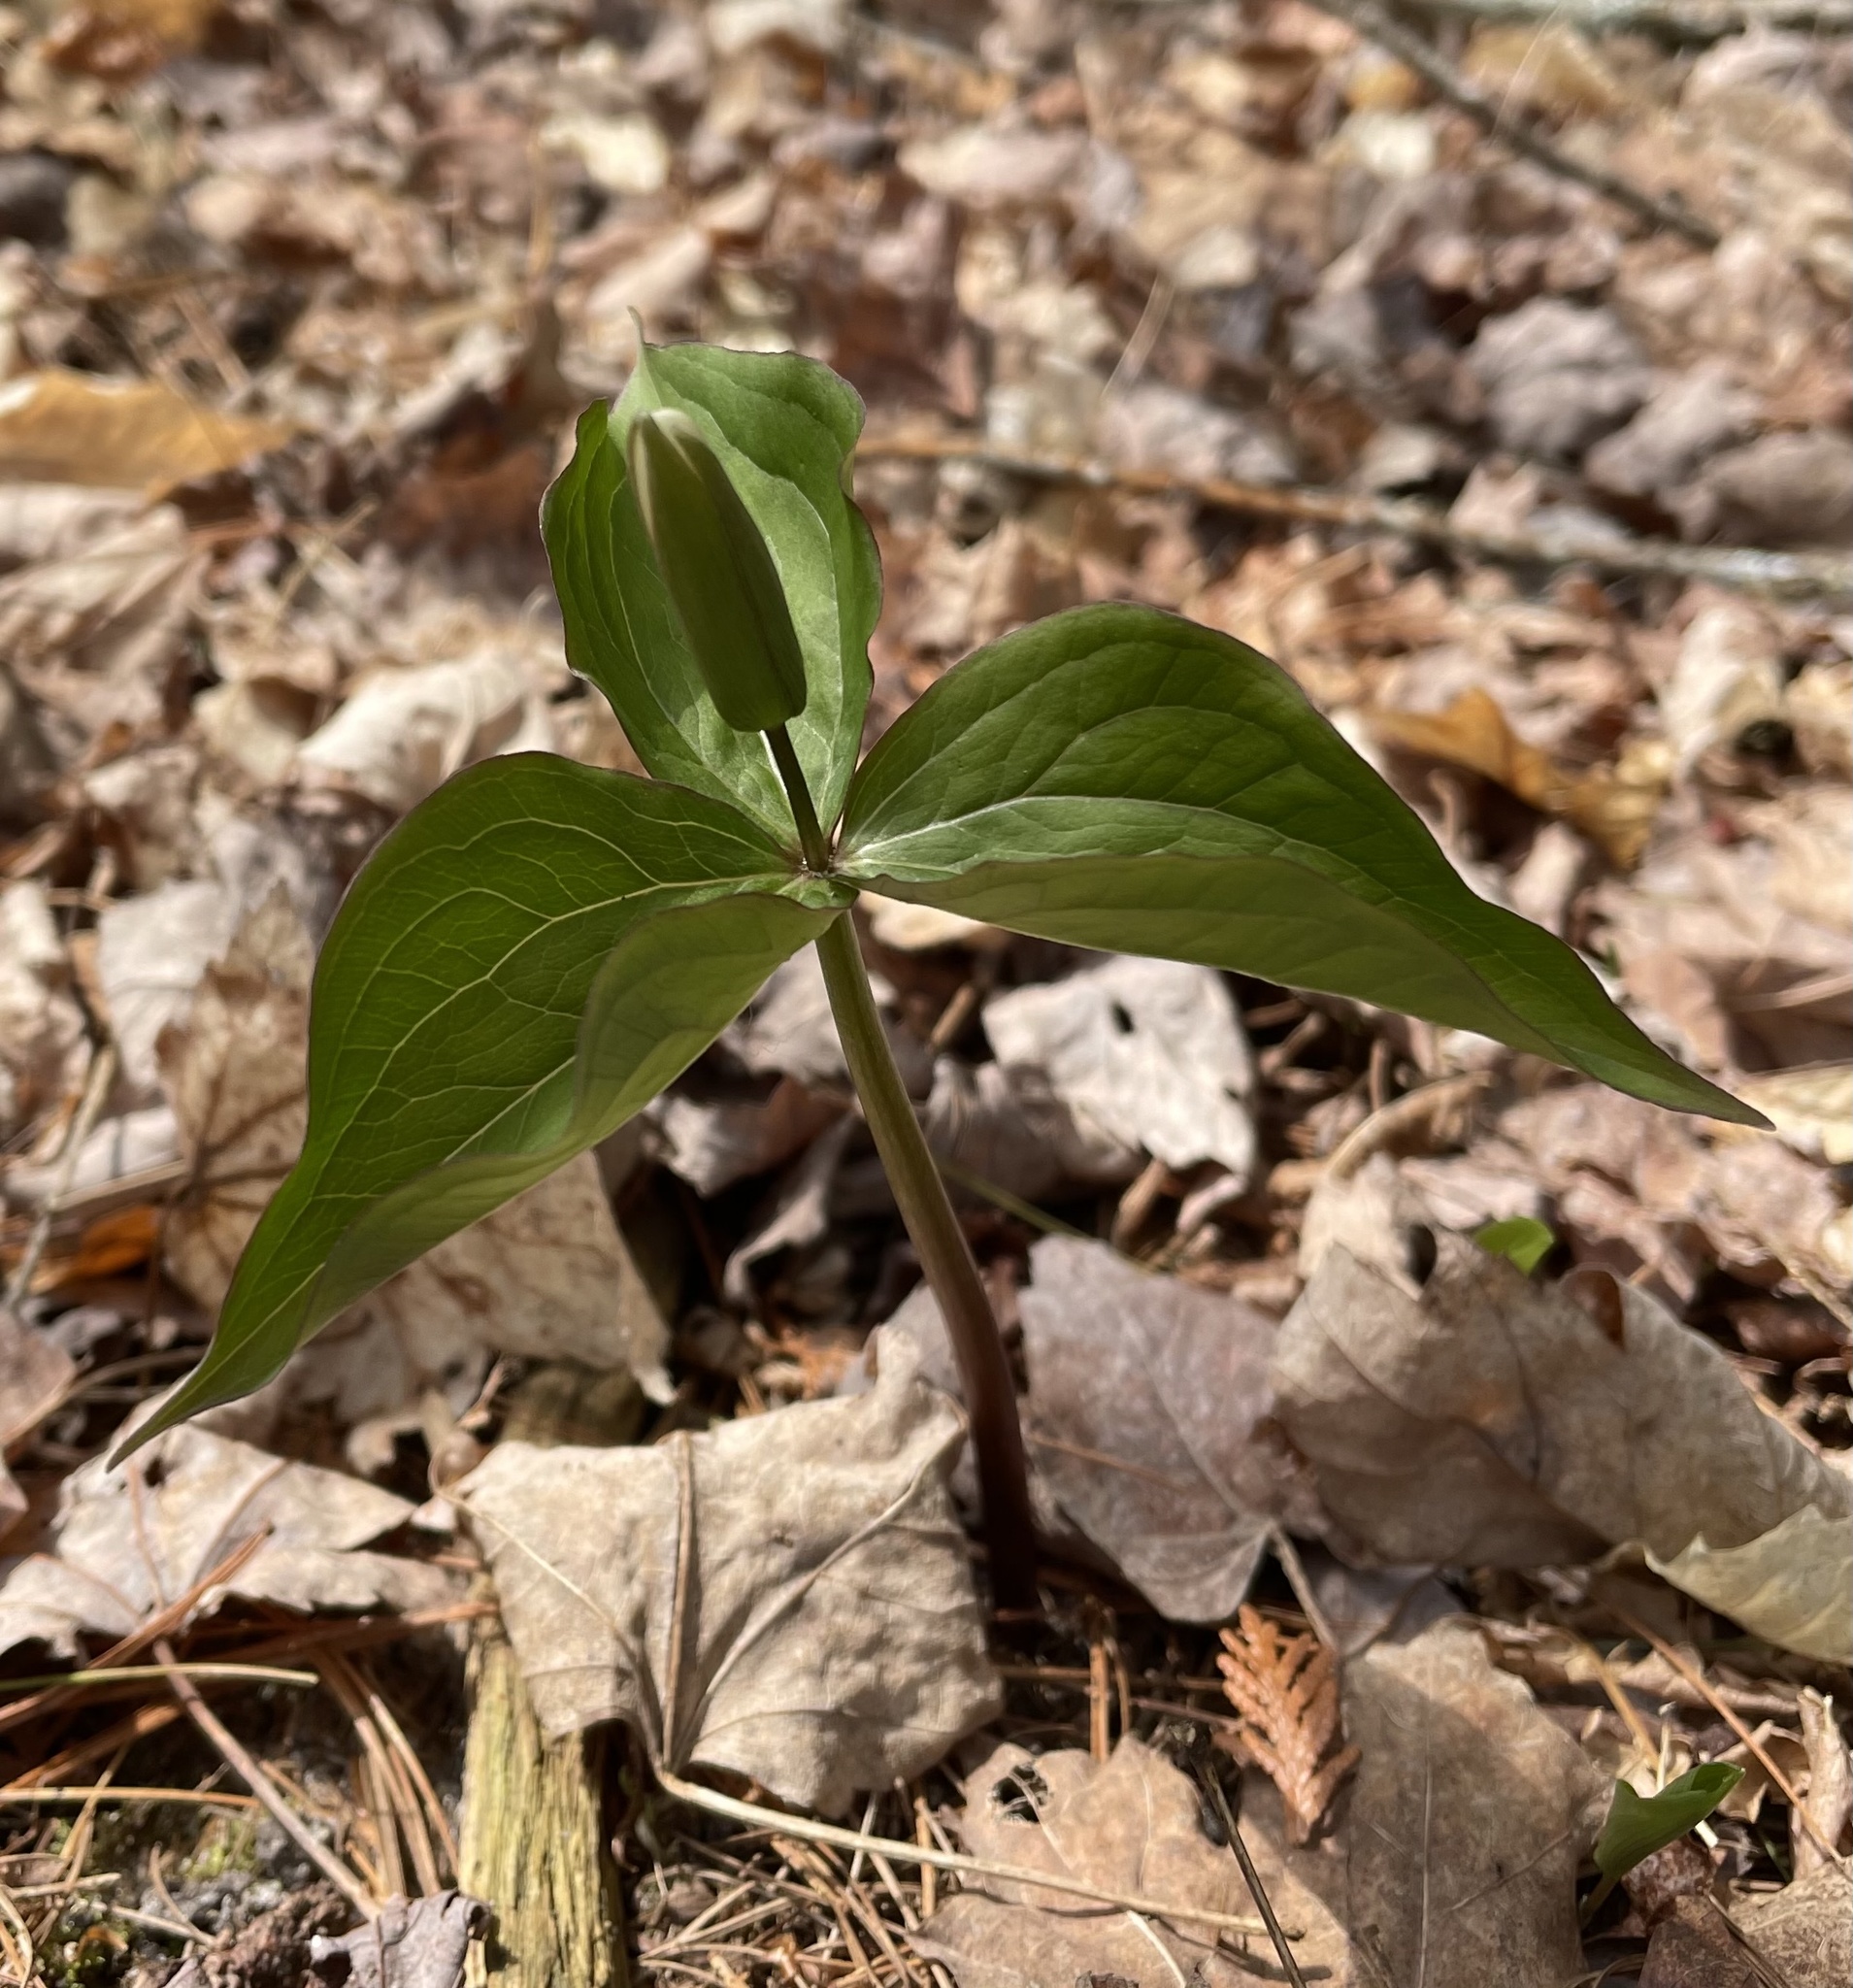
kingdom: Plantae
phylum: Tracheophyta
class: Liliopsida
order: Liliales
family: Melanthiaceae
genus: Trillium
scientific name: Trillium grandiflorum
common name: Great white trillium
